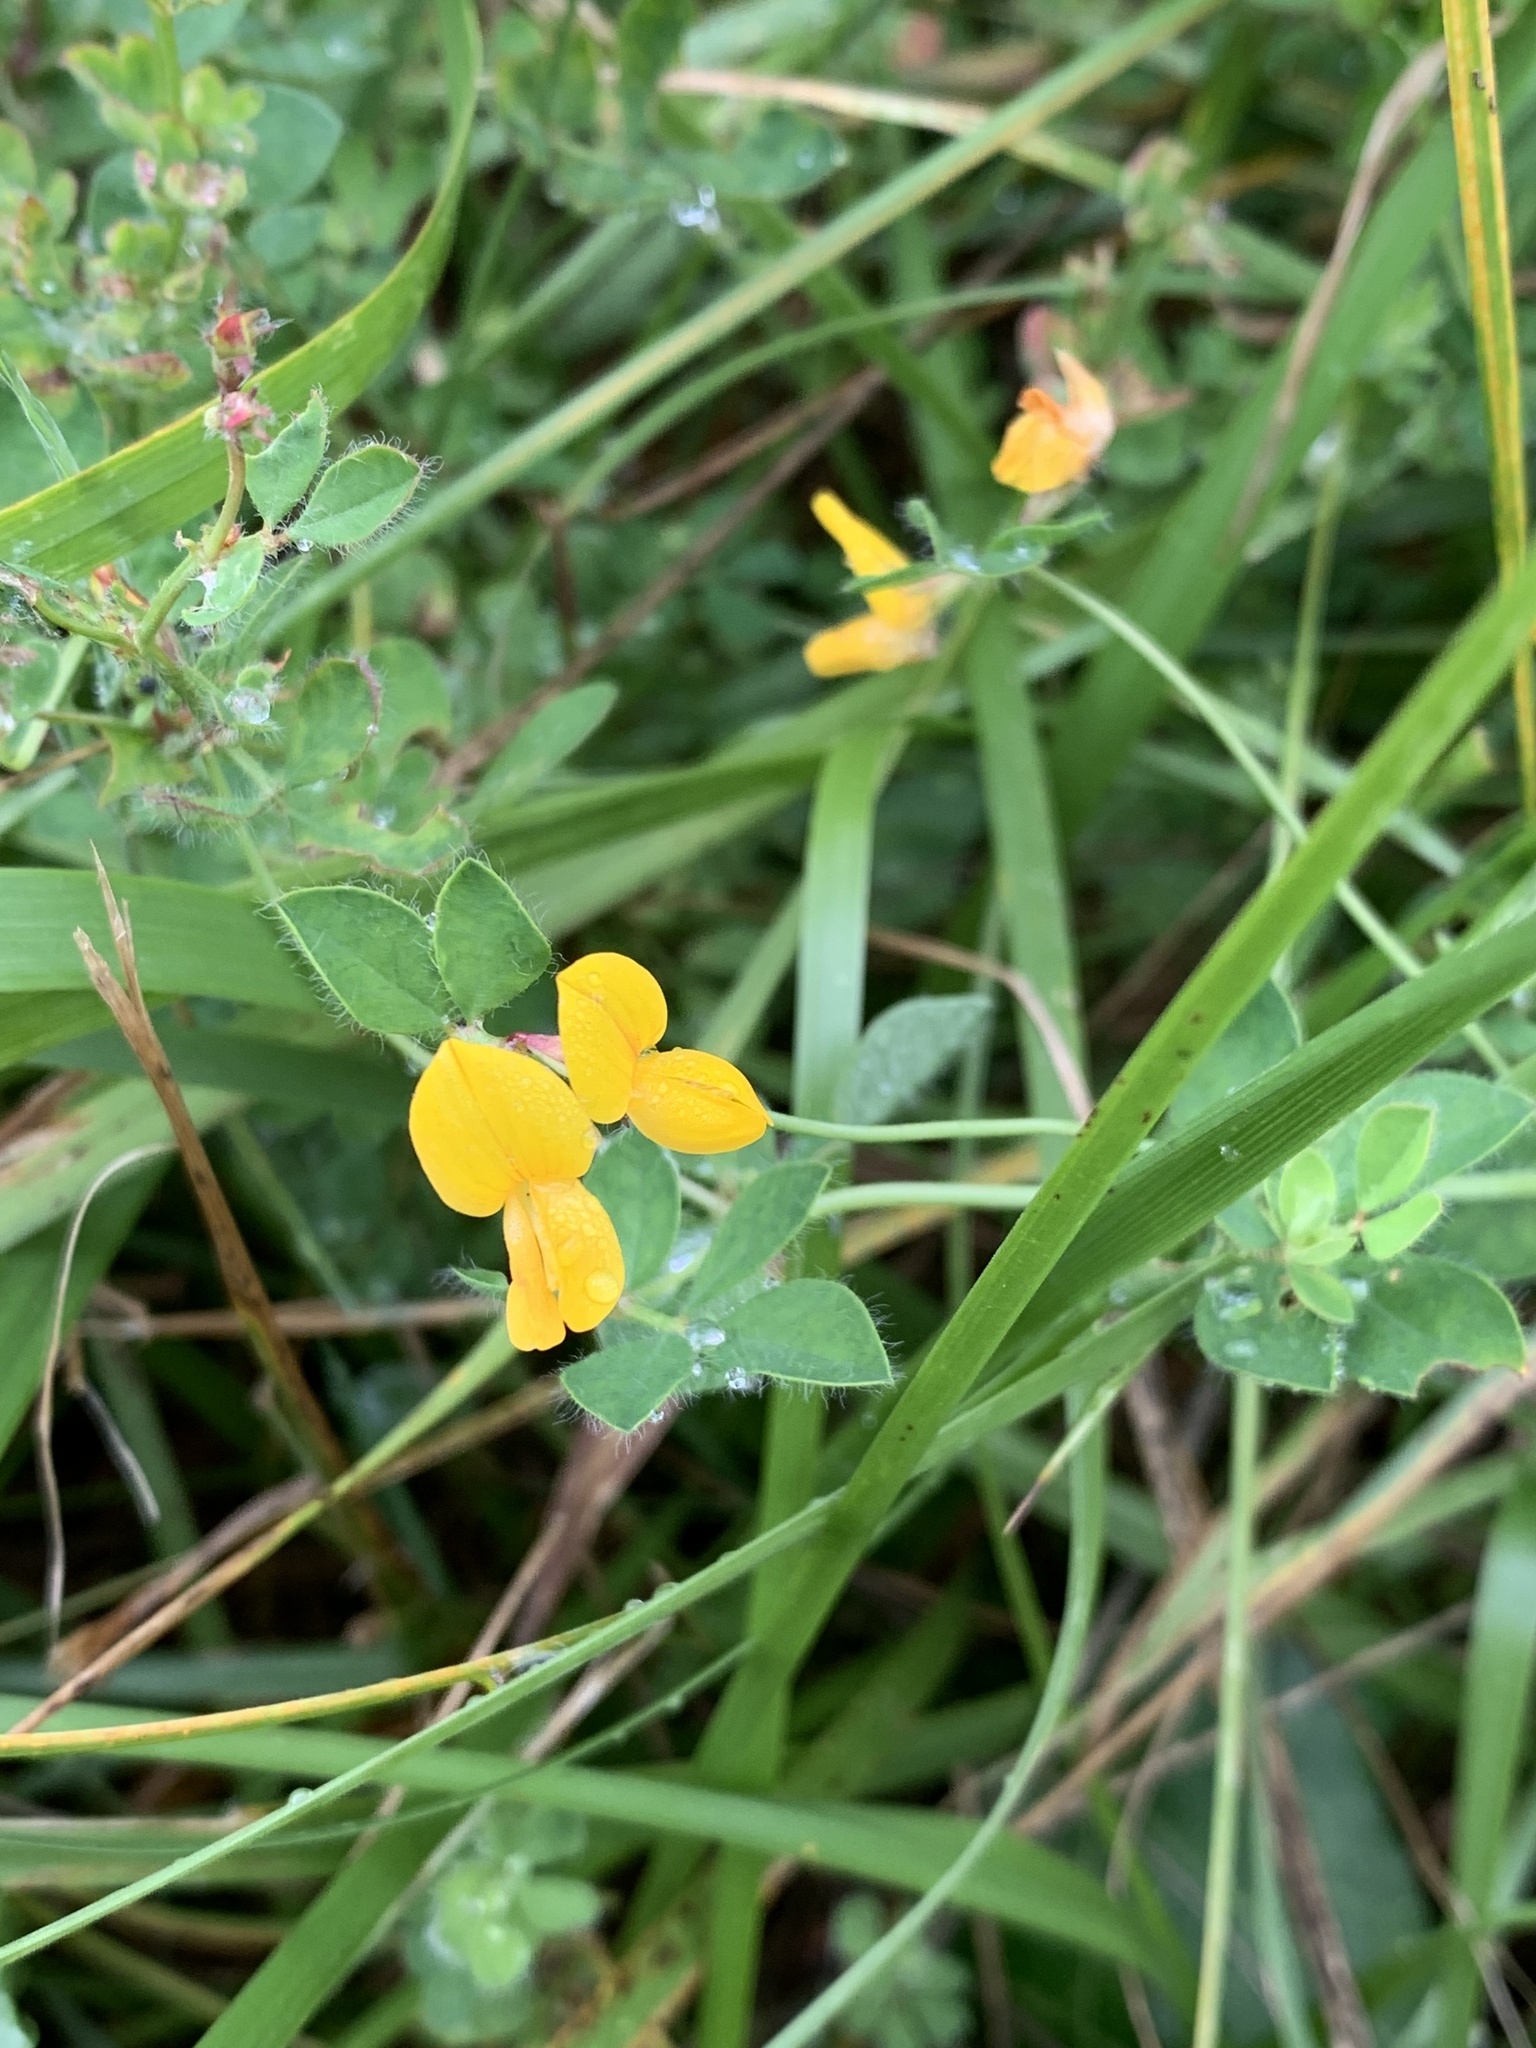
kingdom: Plantae
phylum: Tracheophyta
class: Magnoliopsida
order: Fabales
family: Fabaceae
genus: Lotus
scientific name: Lotus pedunculatus
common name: Greater birdsfoot-trefoil
